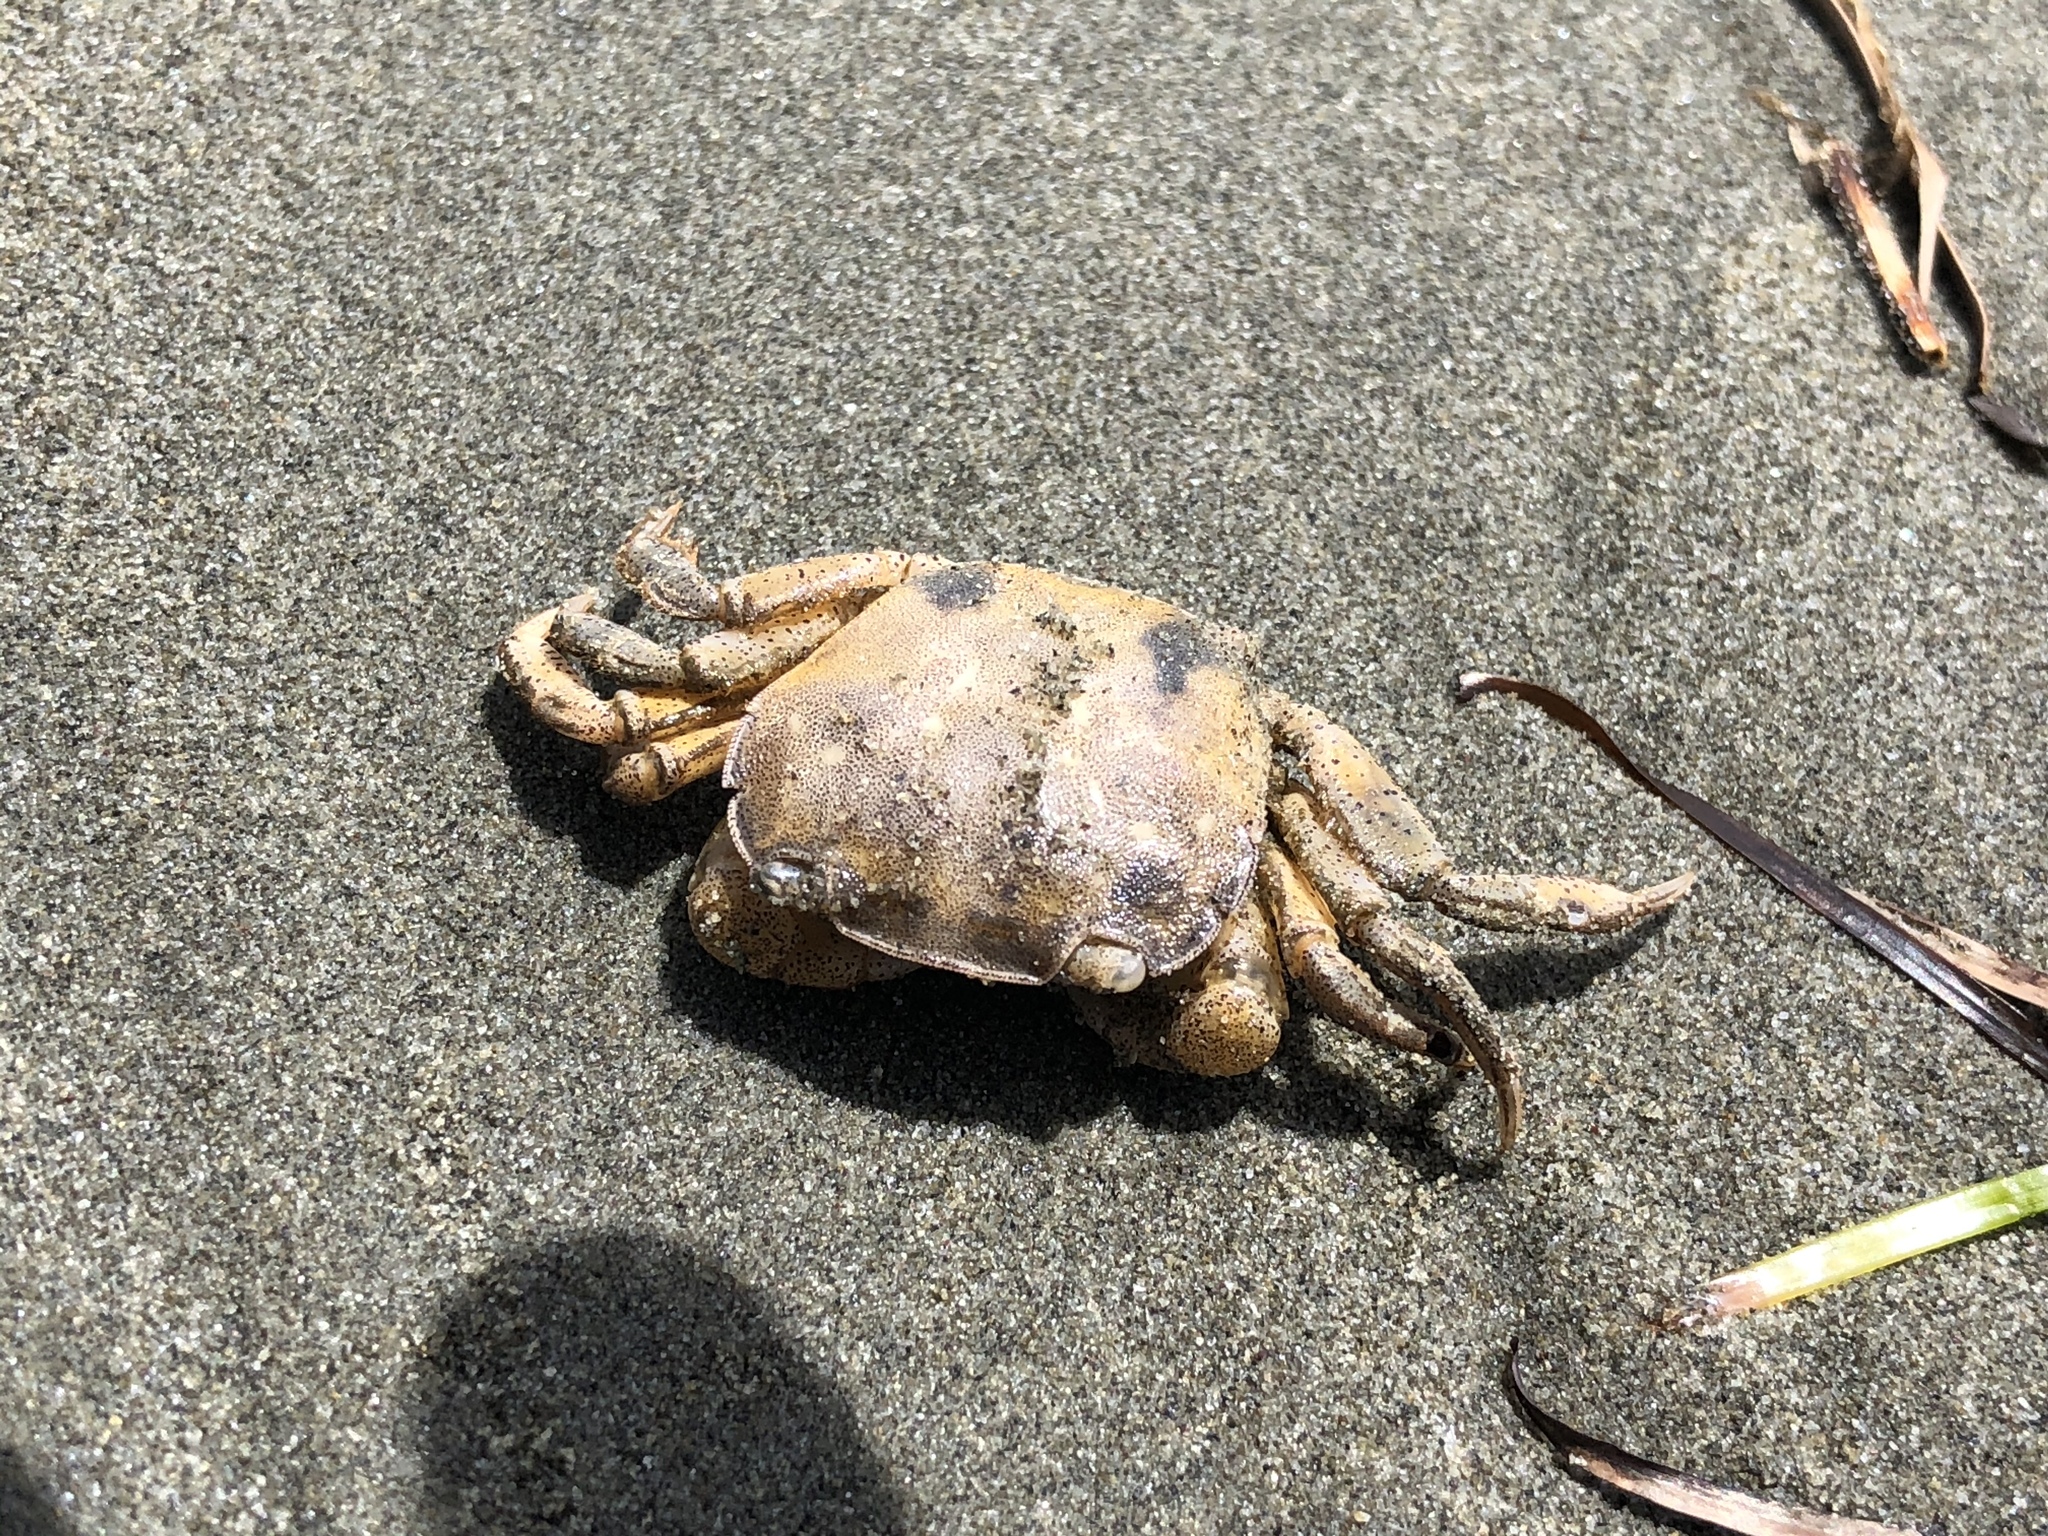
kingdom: Animalia
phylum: Arthropoda
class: Malacostraca
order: Decapoda
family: Varunidae
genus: Hemigrapsus
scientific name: Hemigrapsus crenulatus
